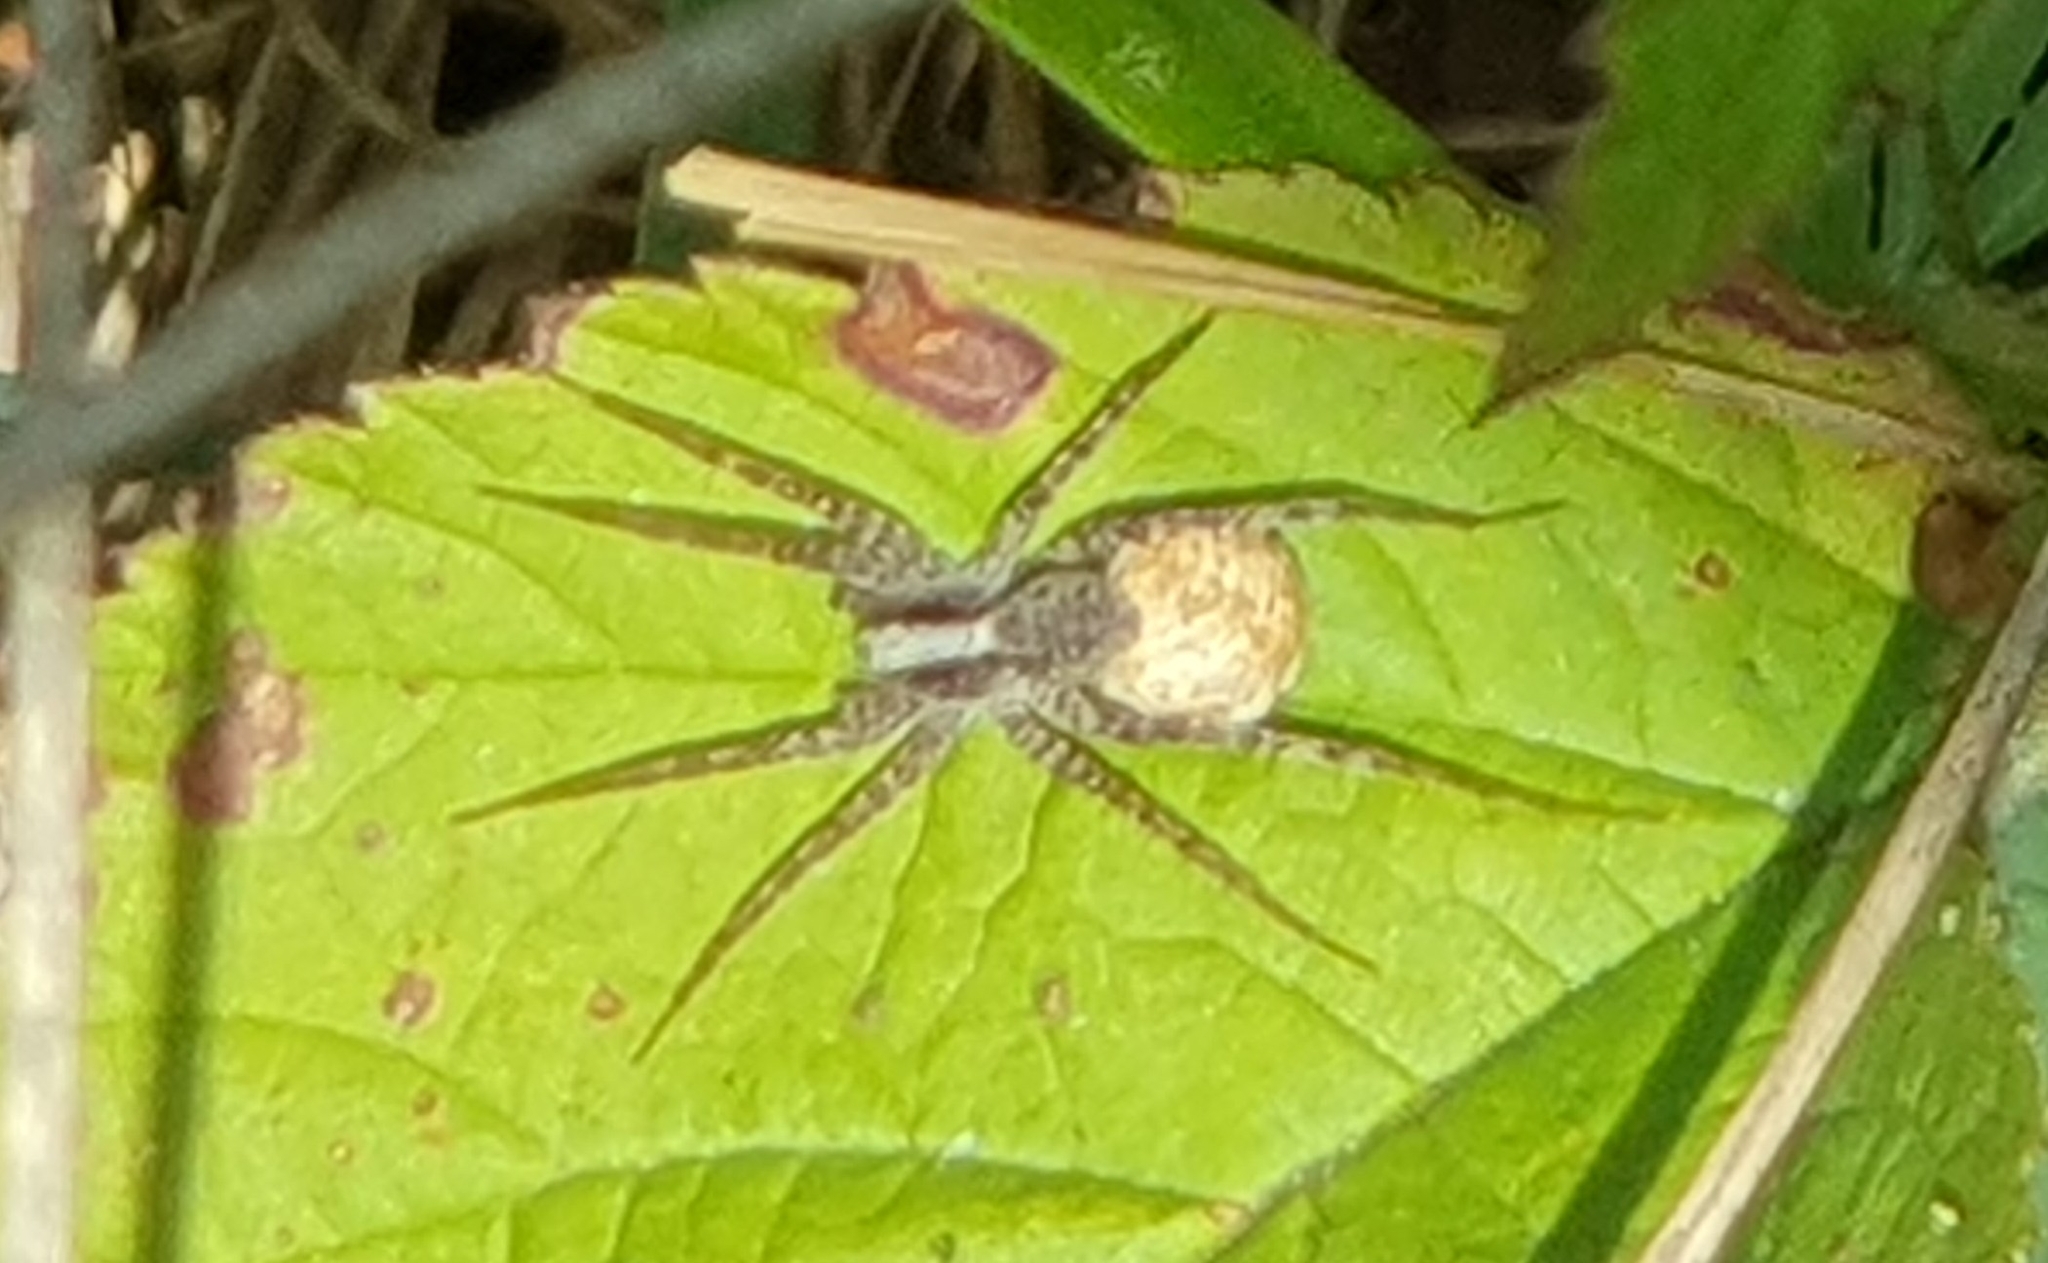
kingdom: Animalia
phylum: Arthropoda
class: Arachnida
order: Araneae
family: Lycosidae
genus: Pardosa
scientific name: Pardosa
